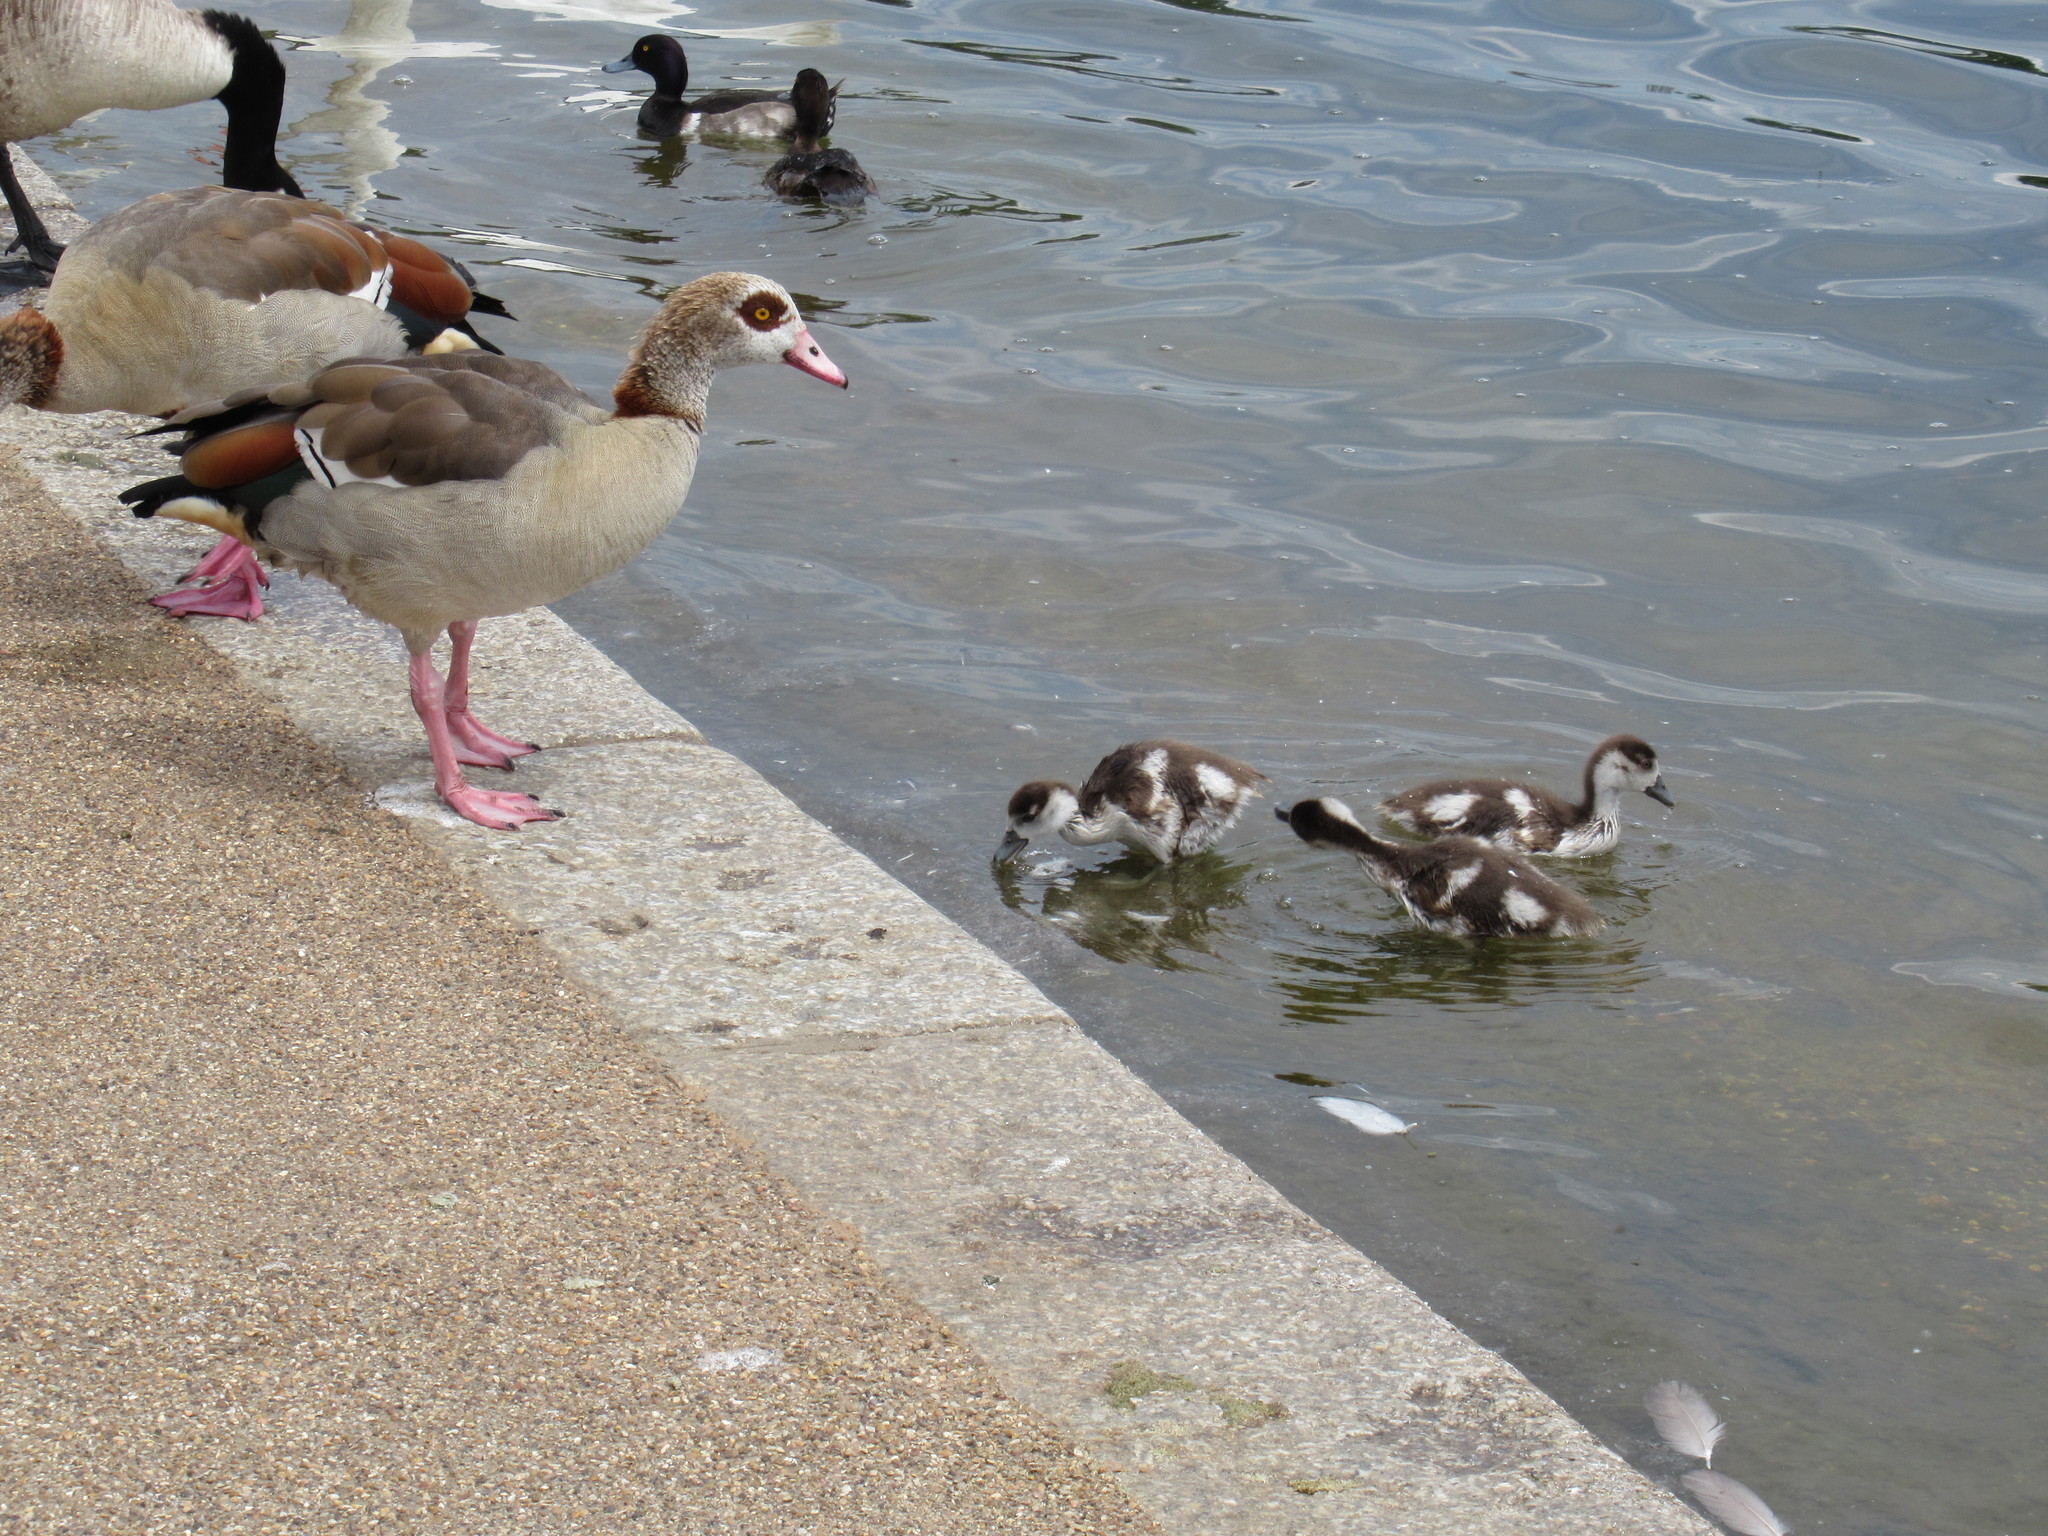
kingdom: Animalia
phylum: Chordata
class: Aves
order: Anseriformes
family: Anatidae
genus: Alopochen
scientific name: Alopochen aegyptiaca
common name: Egyptian goose
